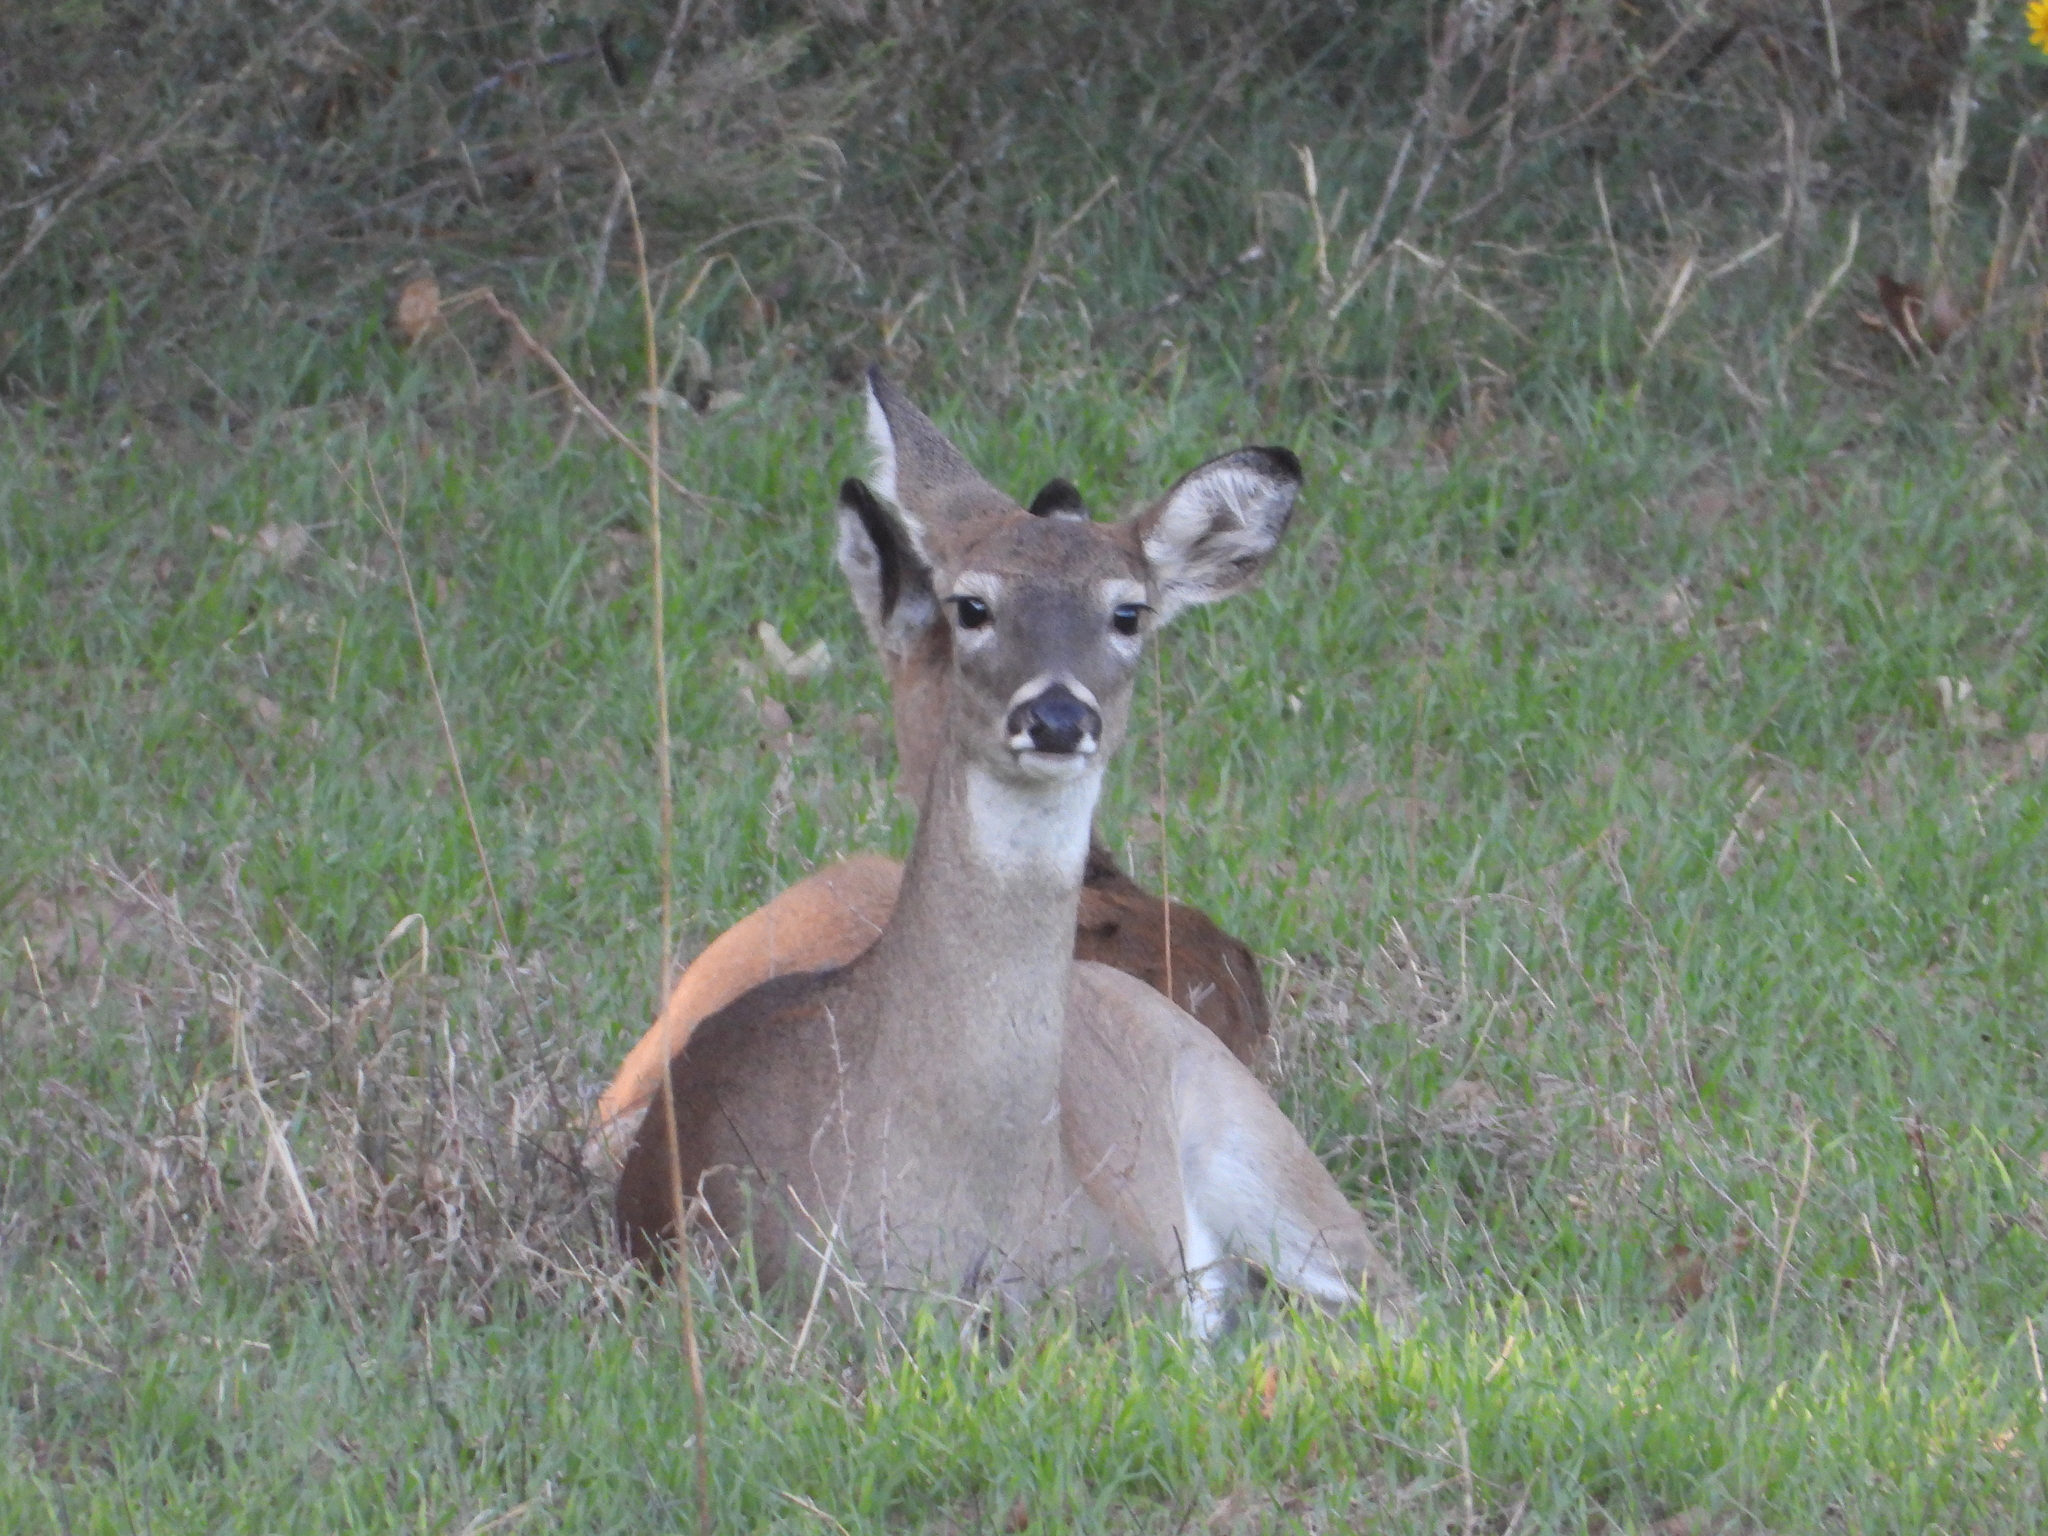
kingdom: Animalia
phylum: Chordata
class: Mammalia
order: Artiodactyla
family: Cervidae
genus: Odocoileus
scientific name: Odocoileus virginianus
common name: White-tailed deer
